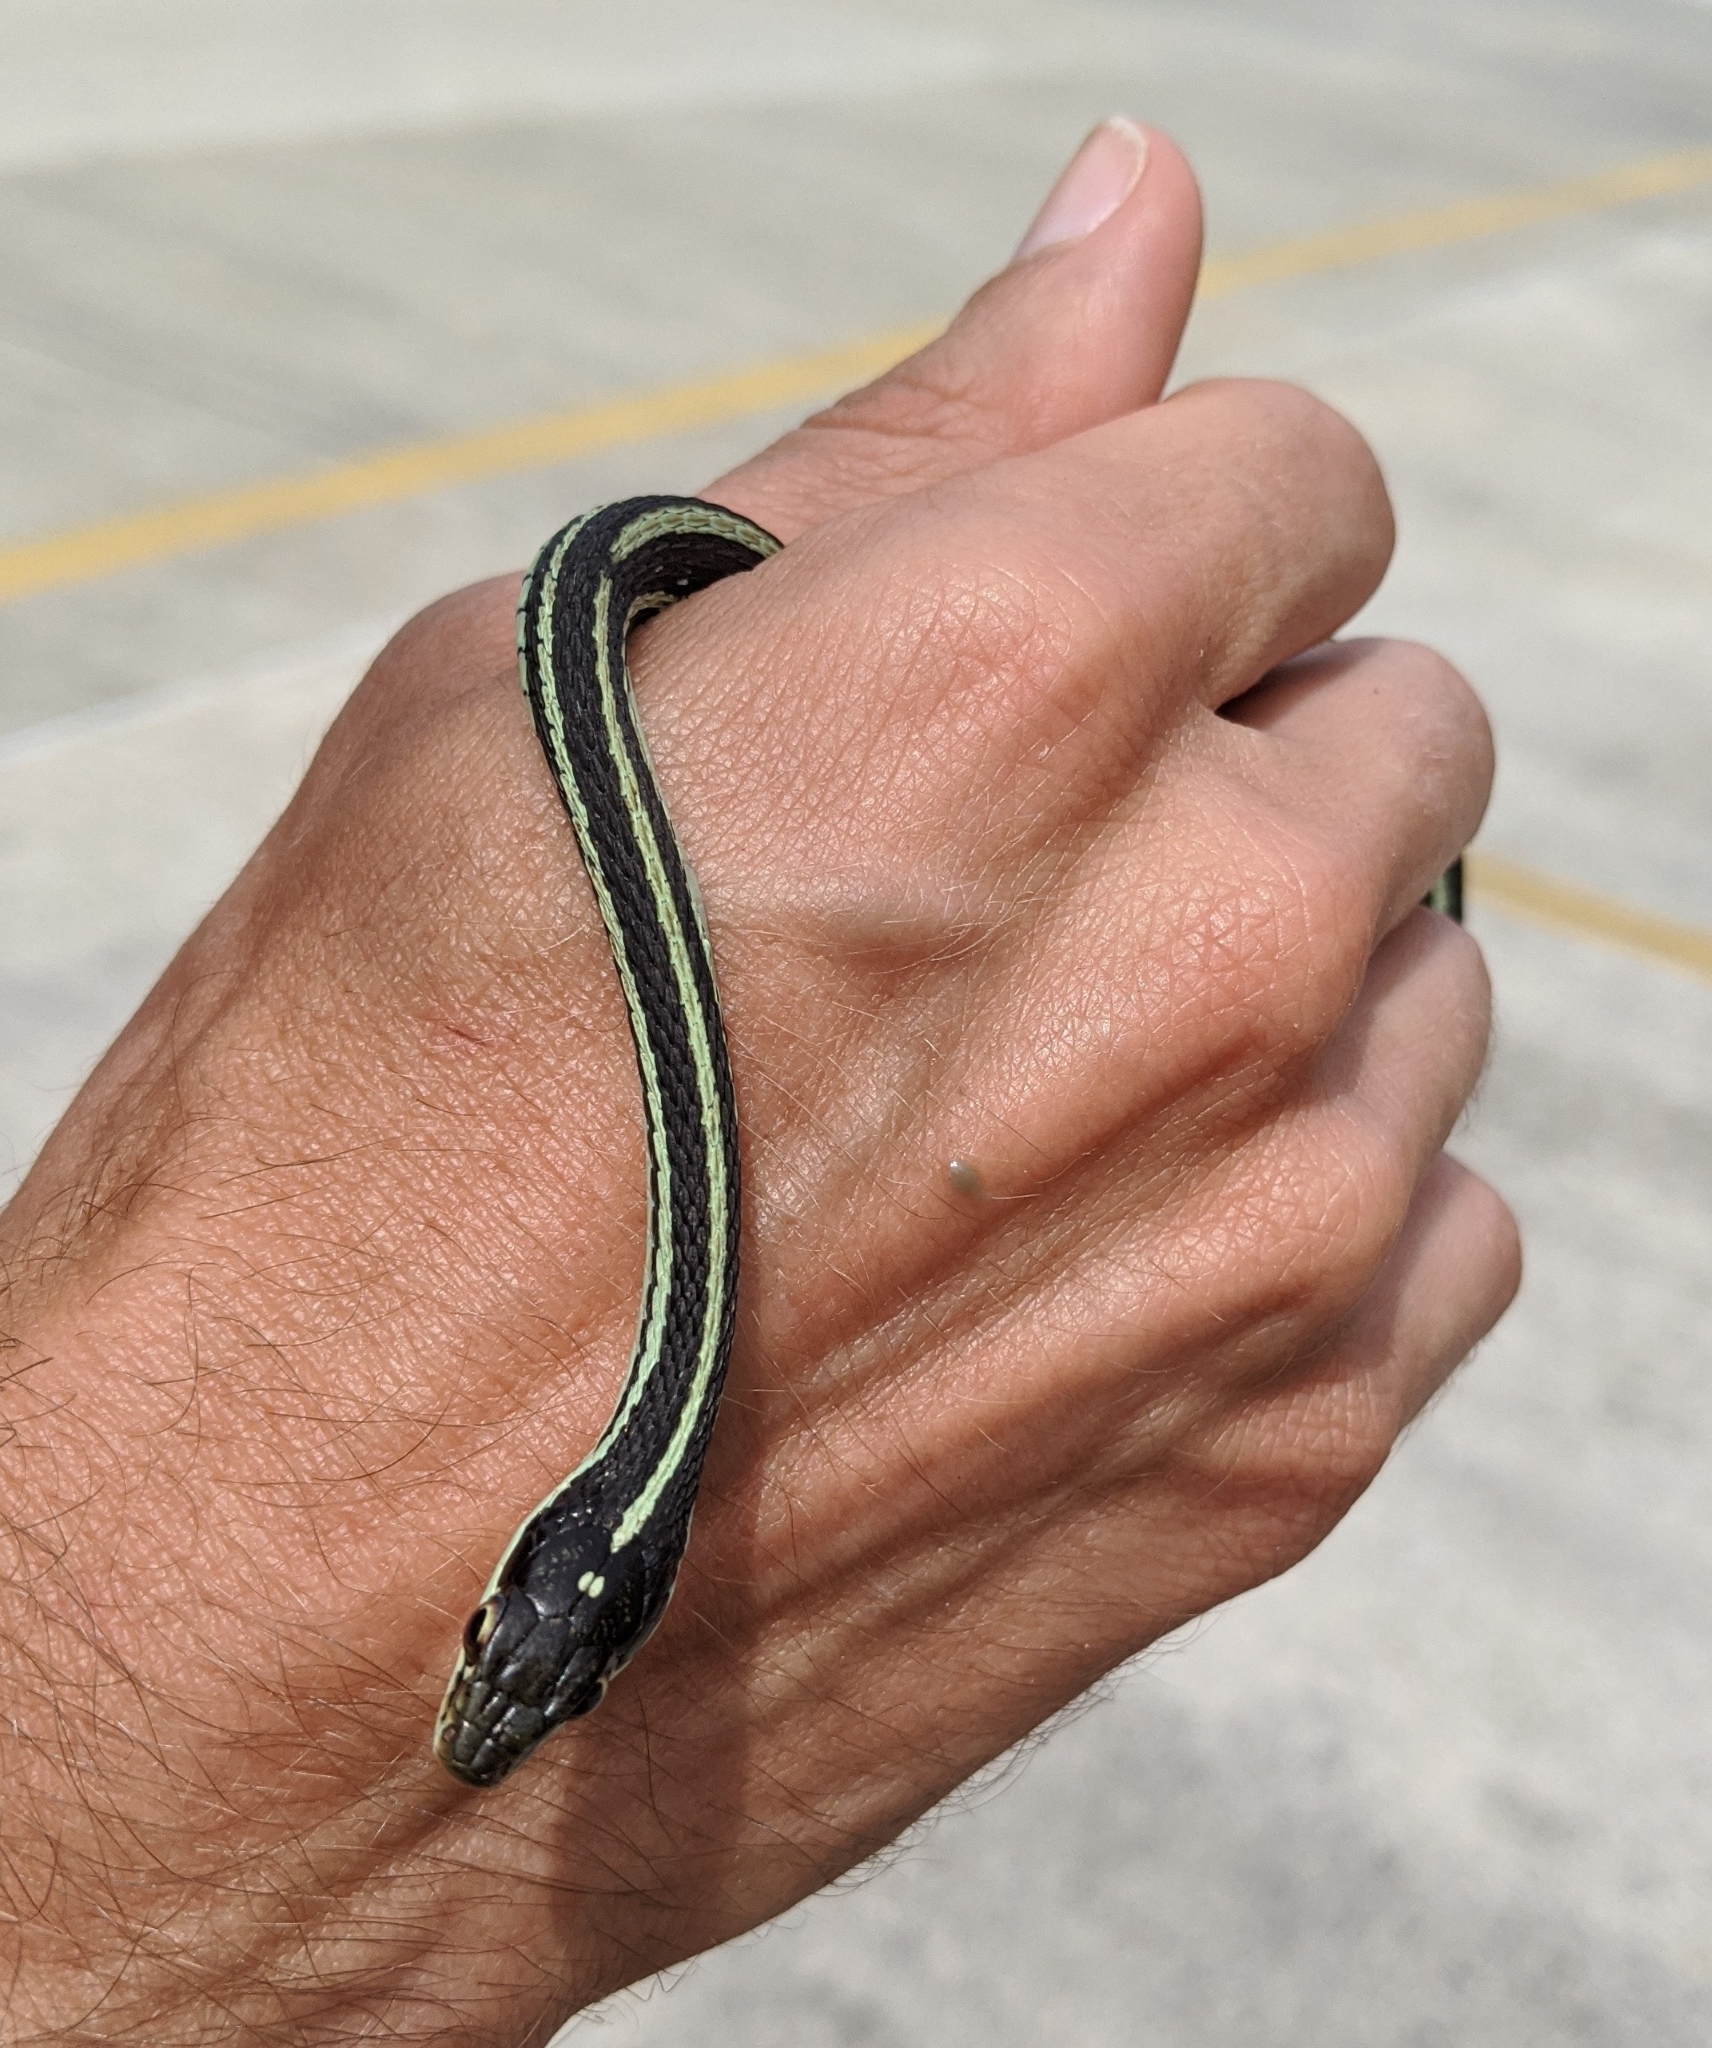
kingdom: Animalia
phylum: Chordata
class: Squamata
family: Colubridae
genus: Thamnophis
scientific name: Thamnophis proximus
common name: Western ribbon snake
